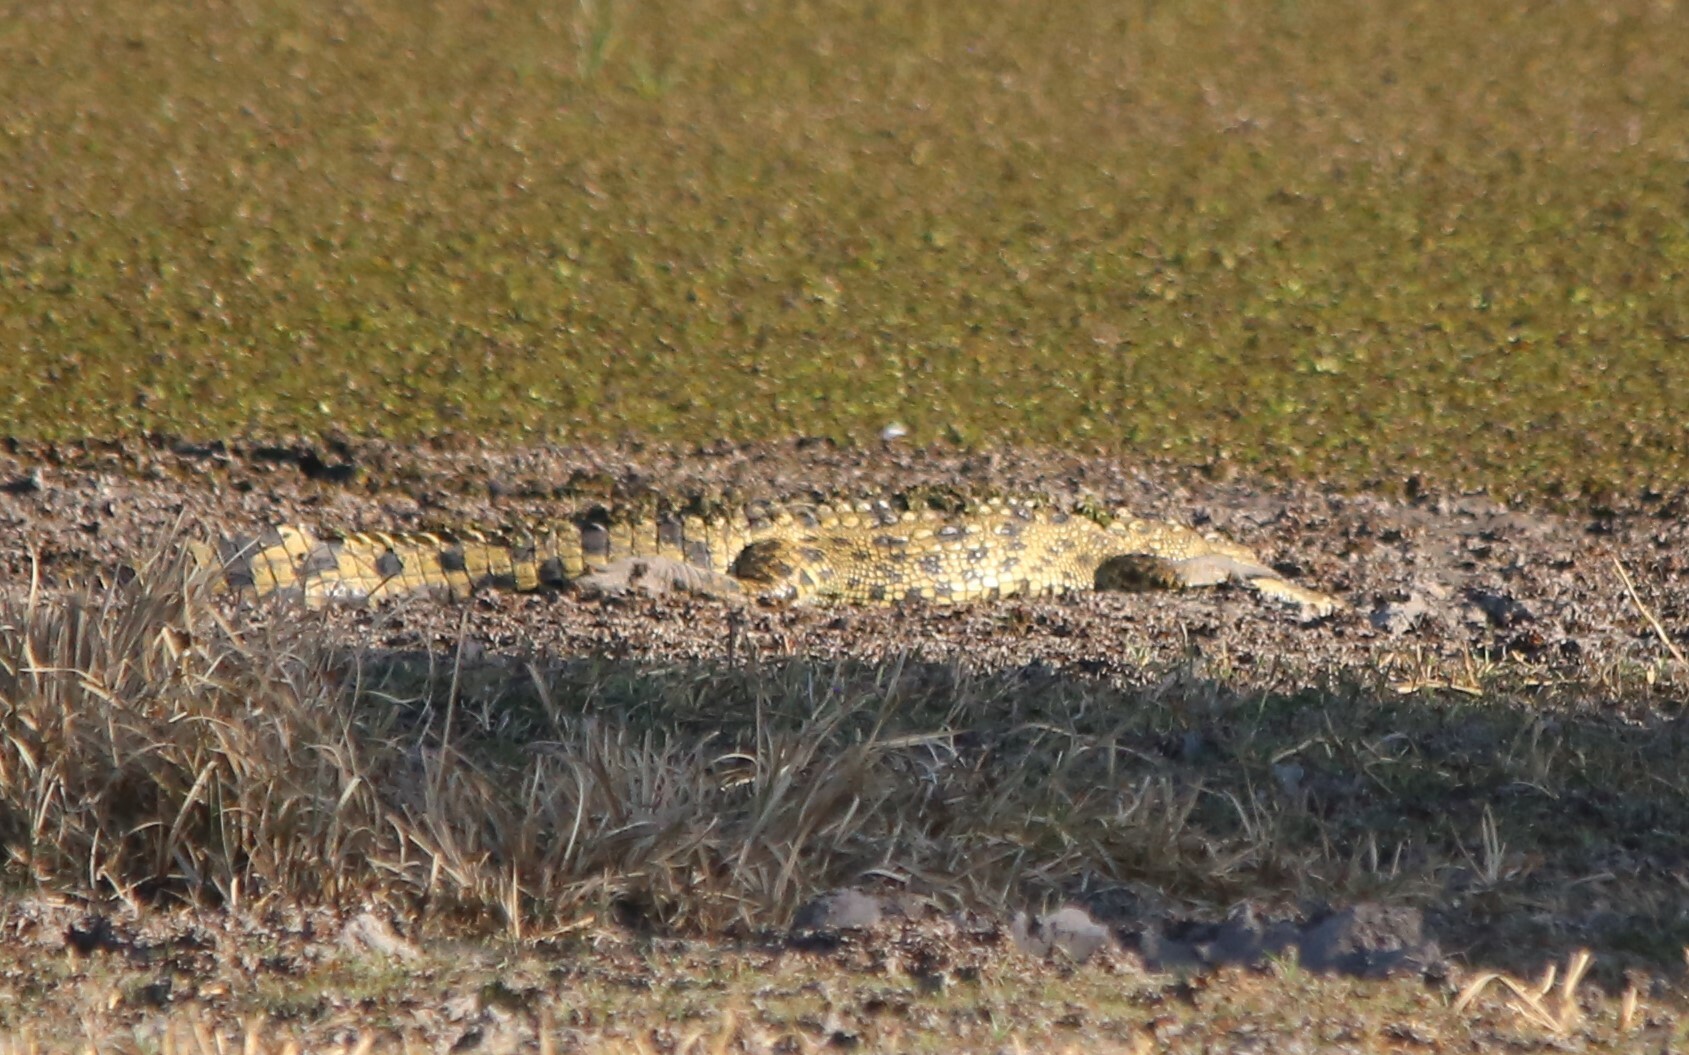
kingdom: Animalia
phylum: Chordata
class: Crocodylia
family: Crocodylidae
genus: Crocodylus
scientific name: Crocodylus niloticus
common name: Nile crocodile
